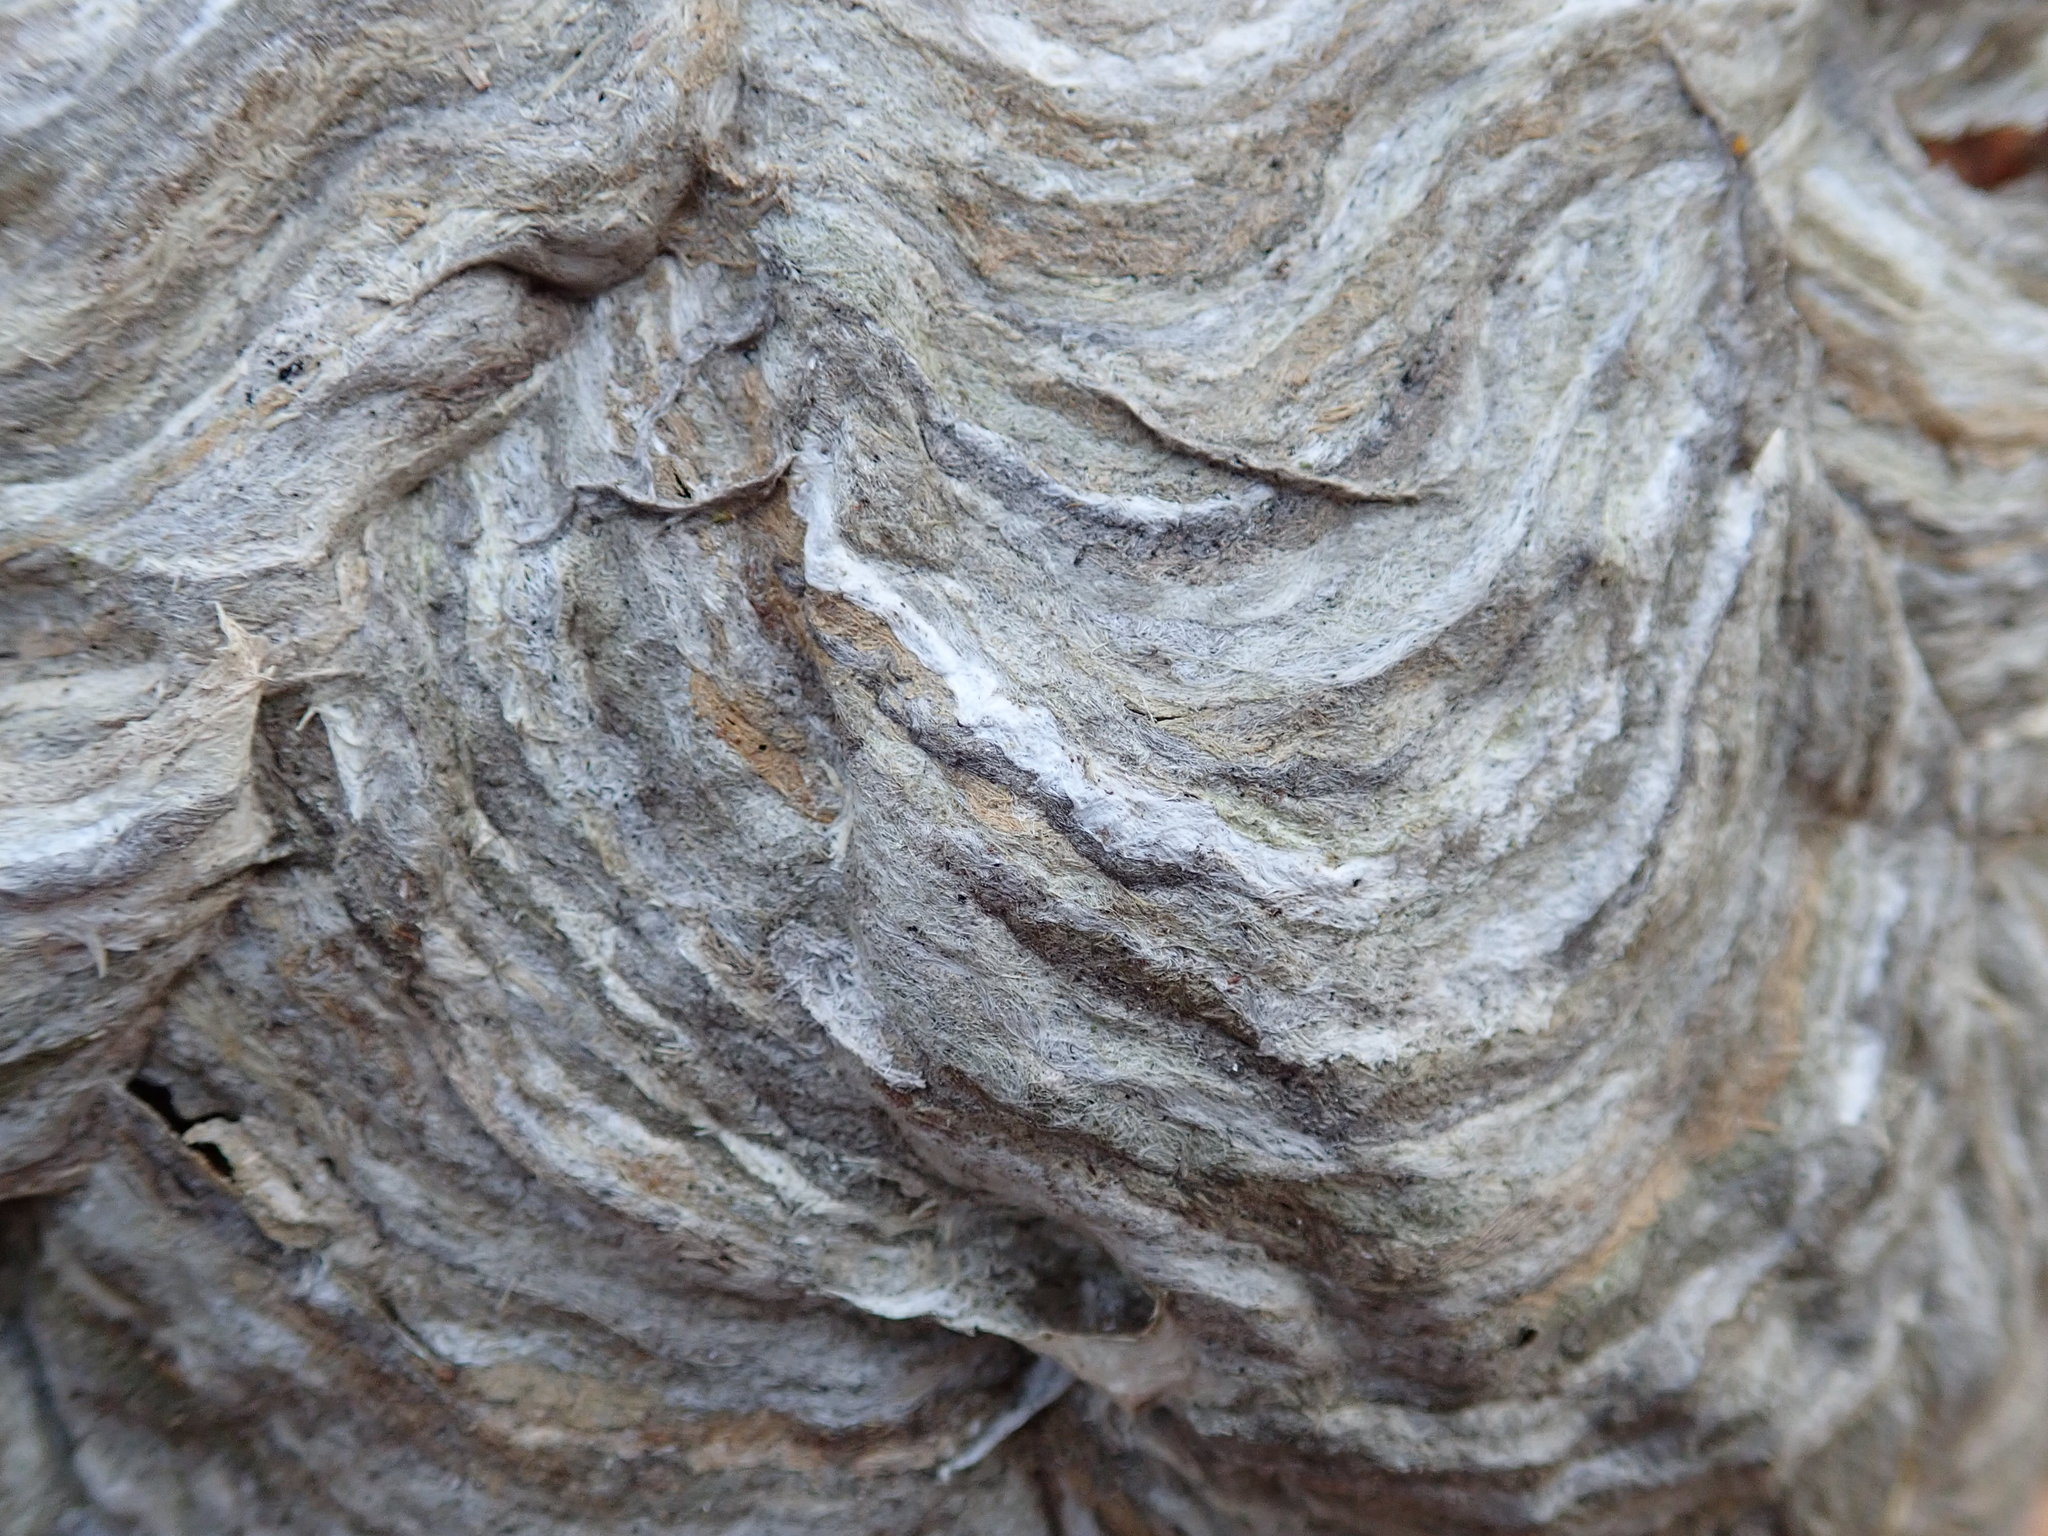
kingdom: Animalia
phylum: Arthropoda
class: Insecta
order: Hymenoptera
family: Vespidae
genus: Dolichovespula
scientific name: Dolichovespula maculata
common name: Bald-faced hornet
